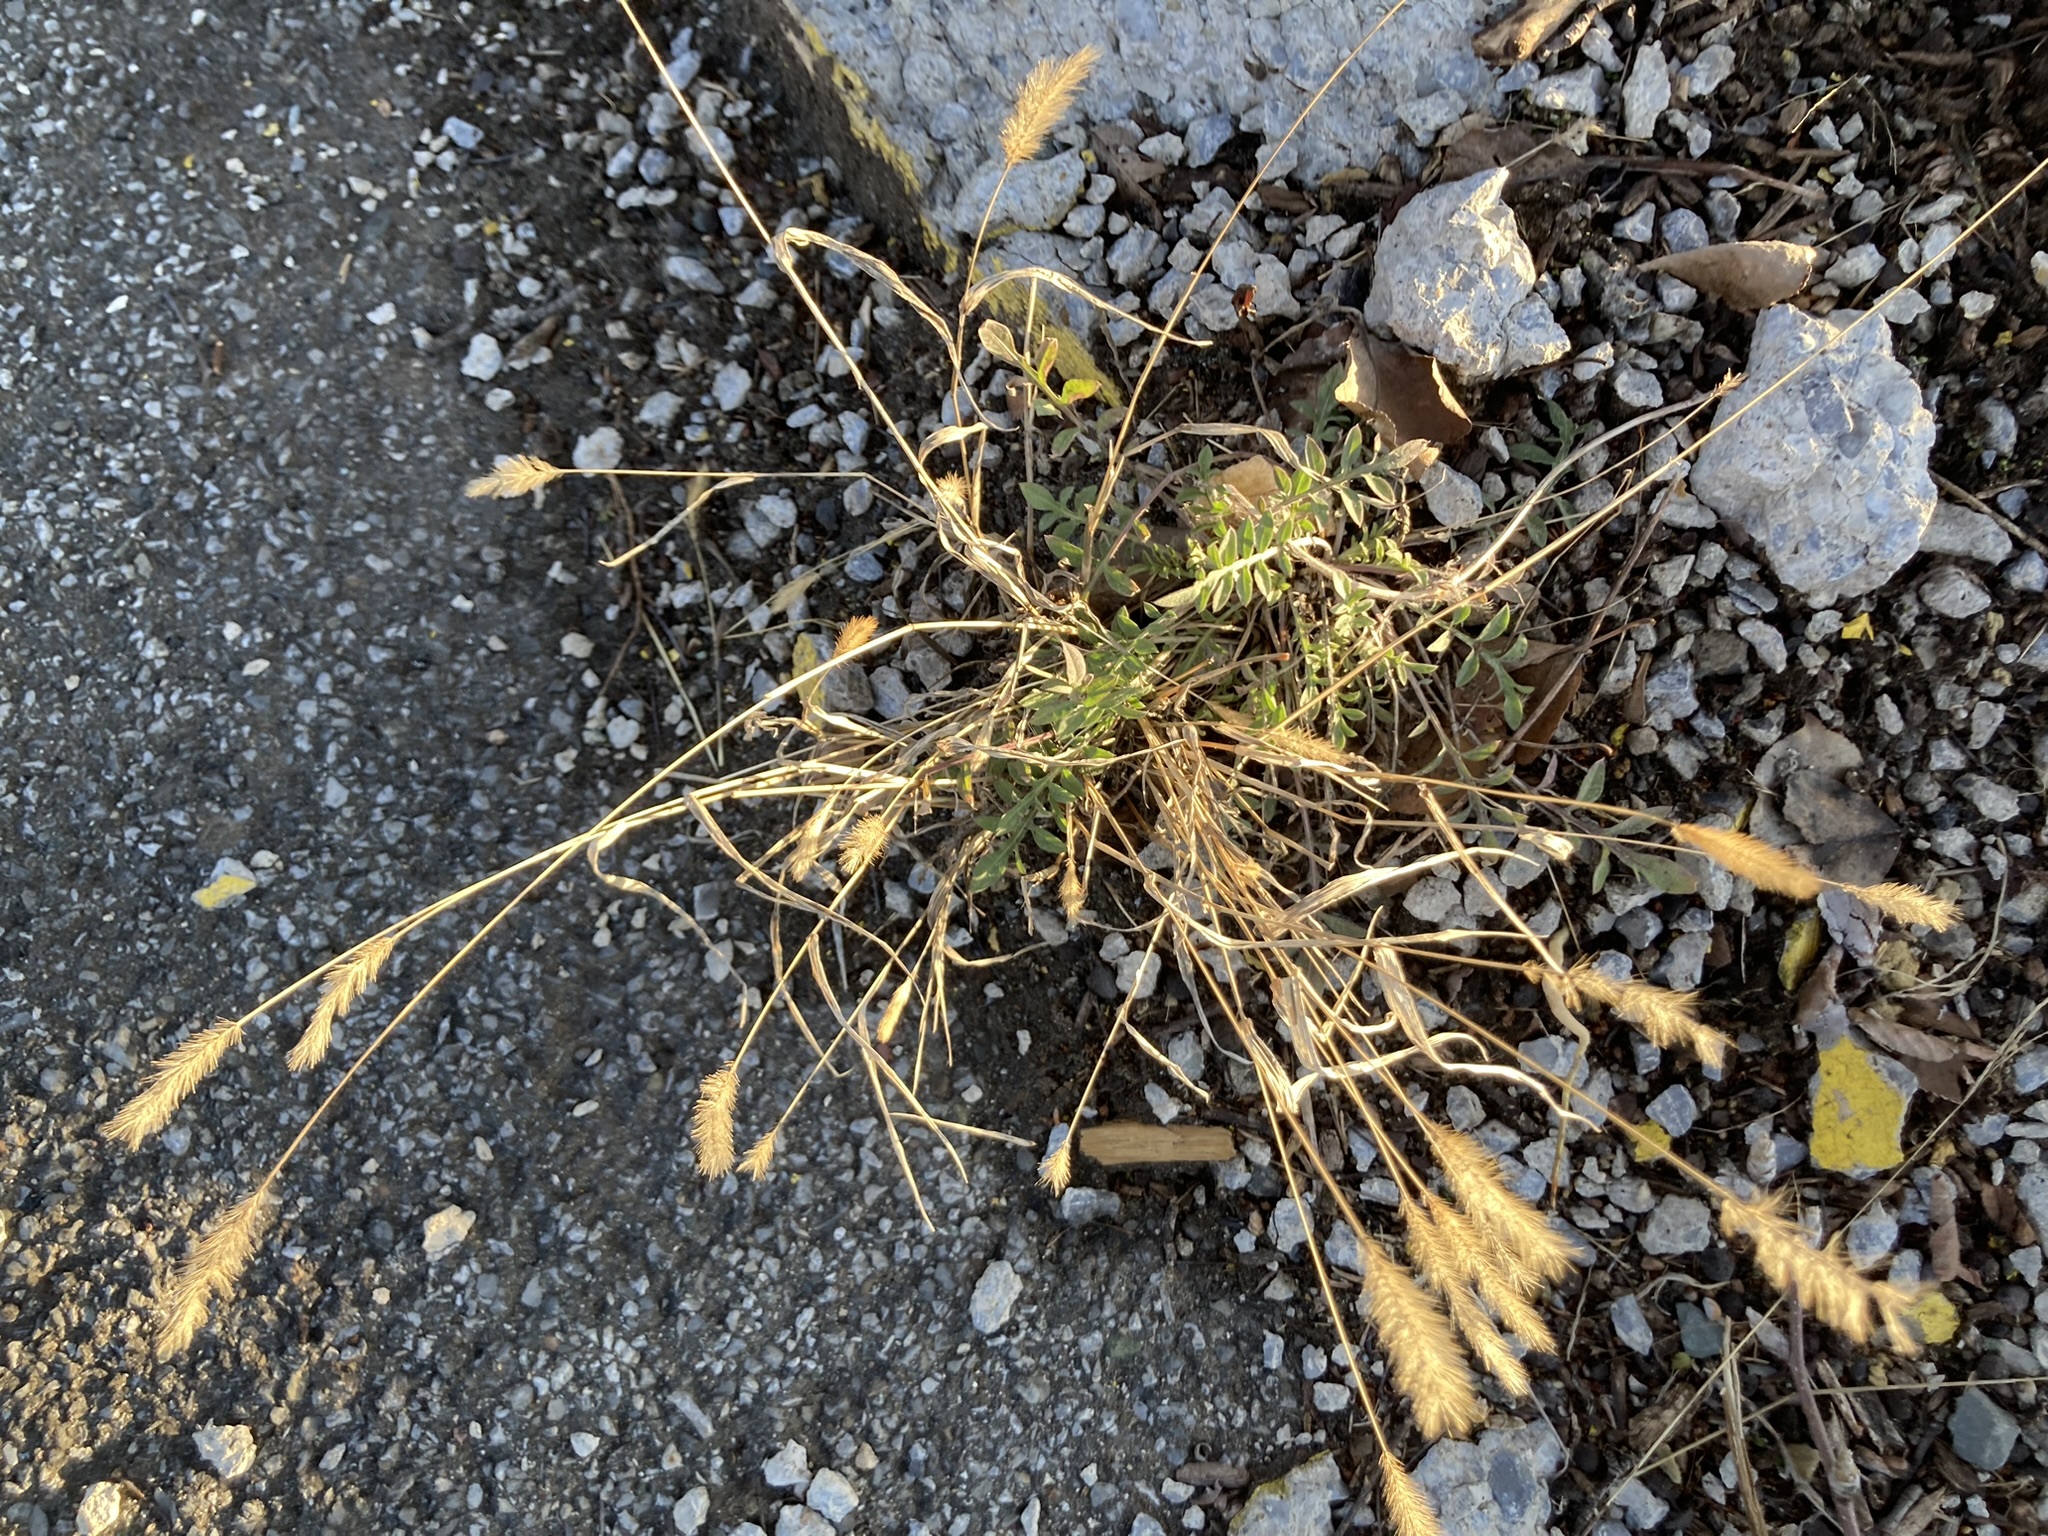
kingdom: Plantae
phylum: Tracheophyta
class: Magnoliopsida
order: Asterales
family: Asteraceae
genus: Centaurea
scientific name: Centaurea stoebe
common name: Spotted knapweed
